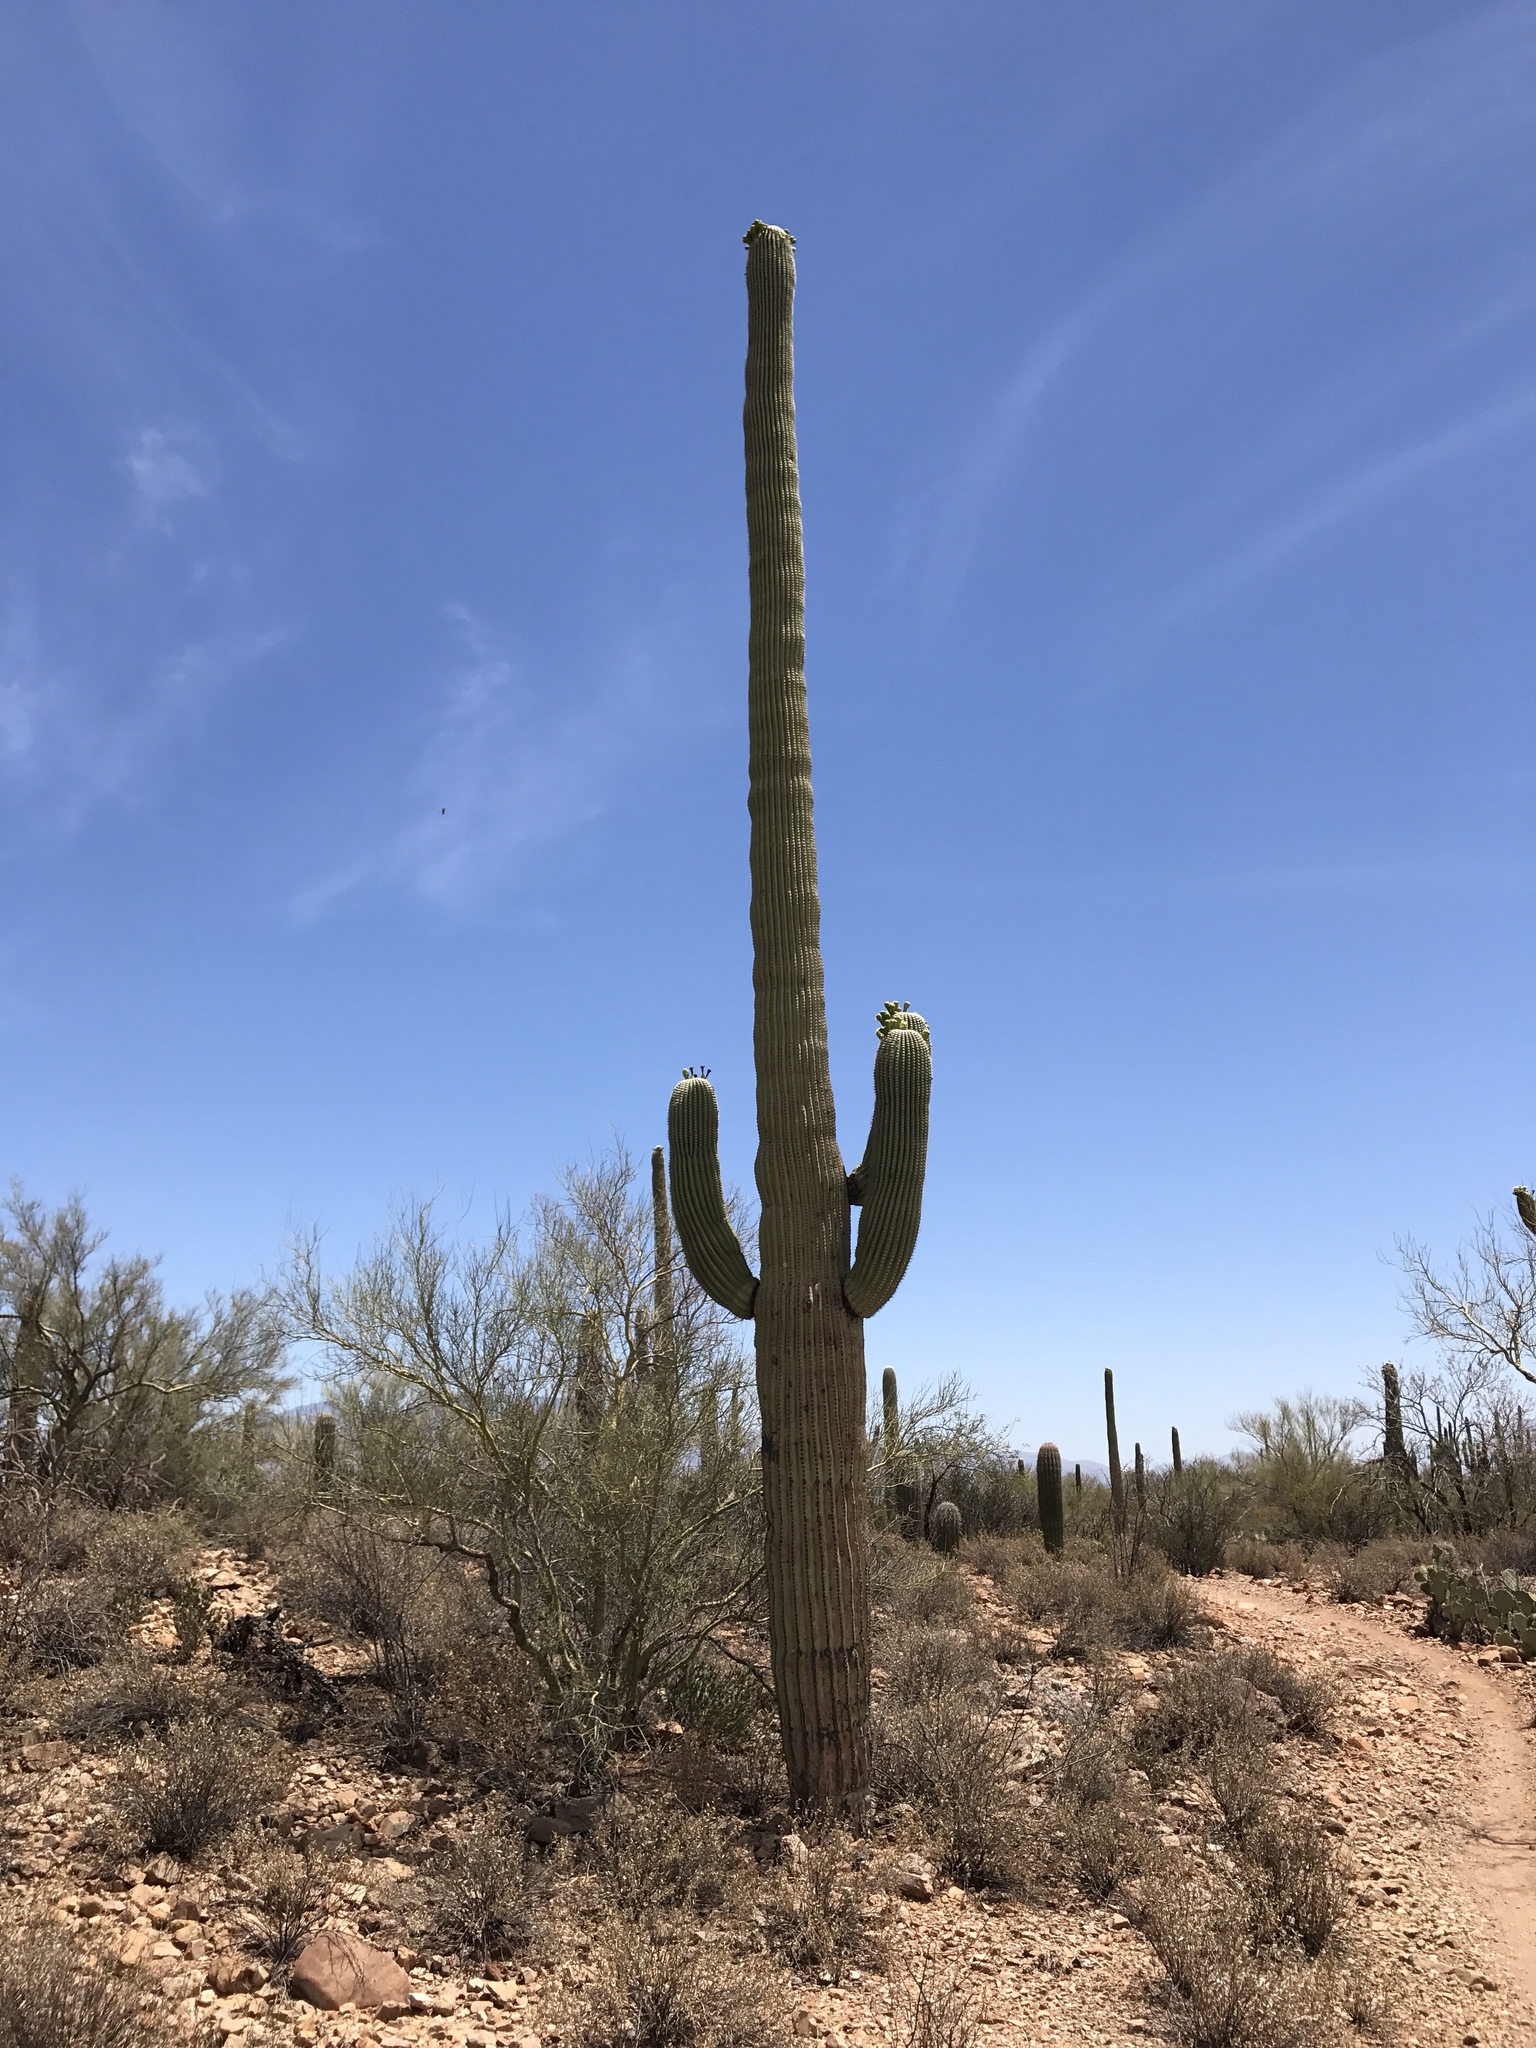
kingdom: Plantae
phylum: Tracheophyta
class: Magnoliopsida
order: Caryophyllales
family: Cactaceae
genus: Carnegiea
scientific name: Carnegiea gigantea
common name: Saguaro
